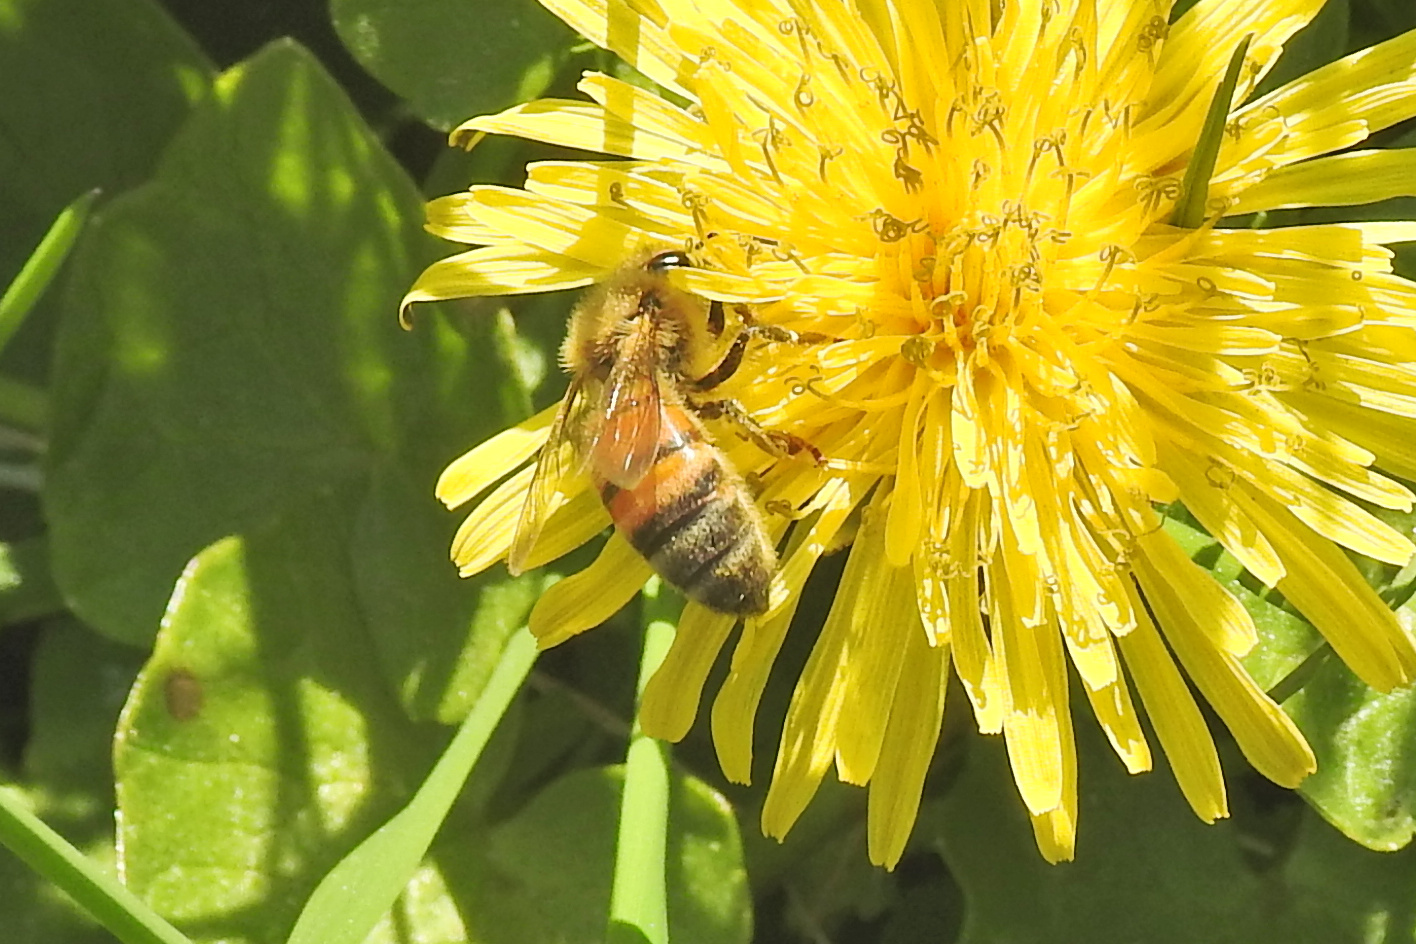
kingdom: Animalia
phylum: Arthropoda
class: Insecta
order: Hymenoptera
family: Apidae
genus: Apis
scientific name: Apis mellifera
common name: Honey bee
